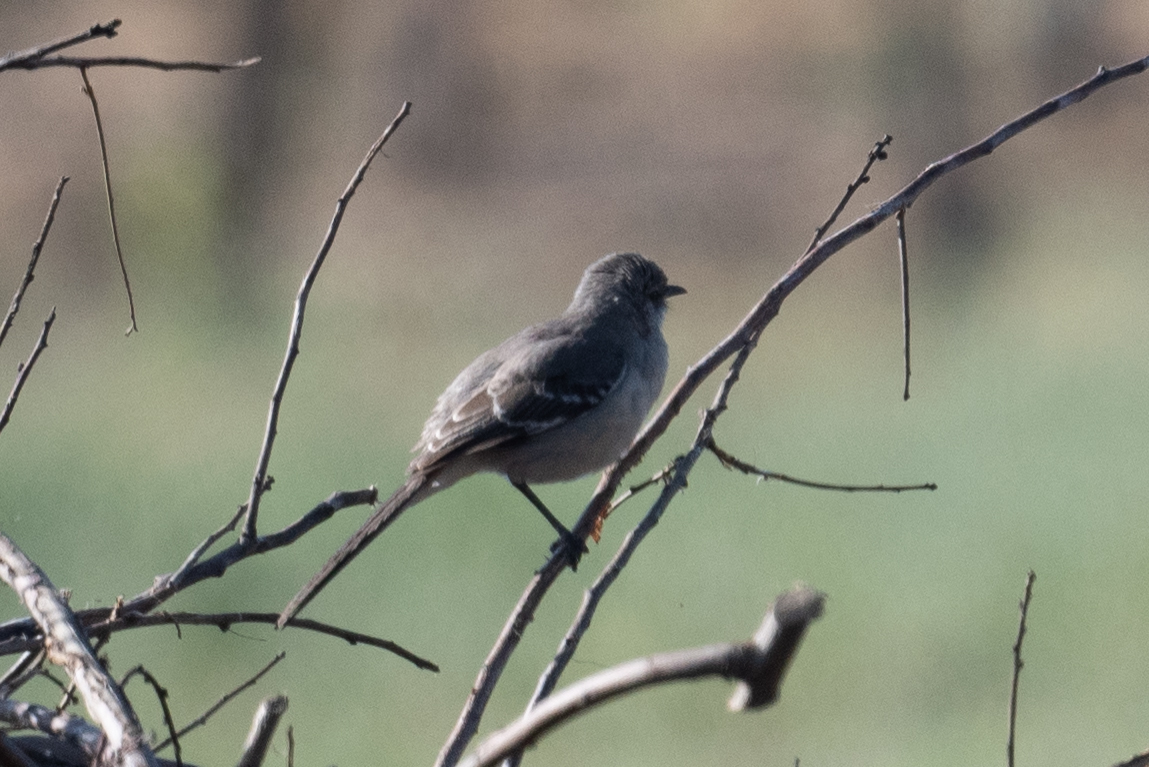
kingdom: Animalia
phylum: Chordata
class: Aves
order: Passeriformes
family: Mimidae
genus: Mimus
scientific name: Mimus polyglottos
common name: Northern mockingbird
